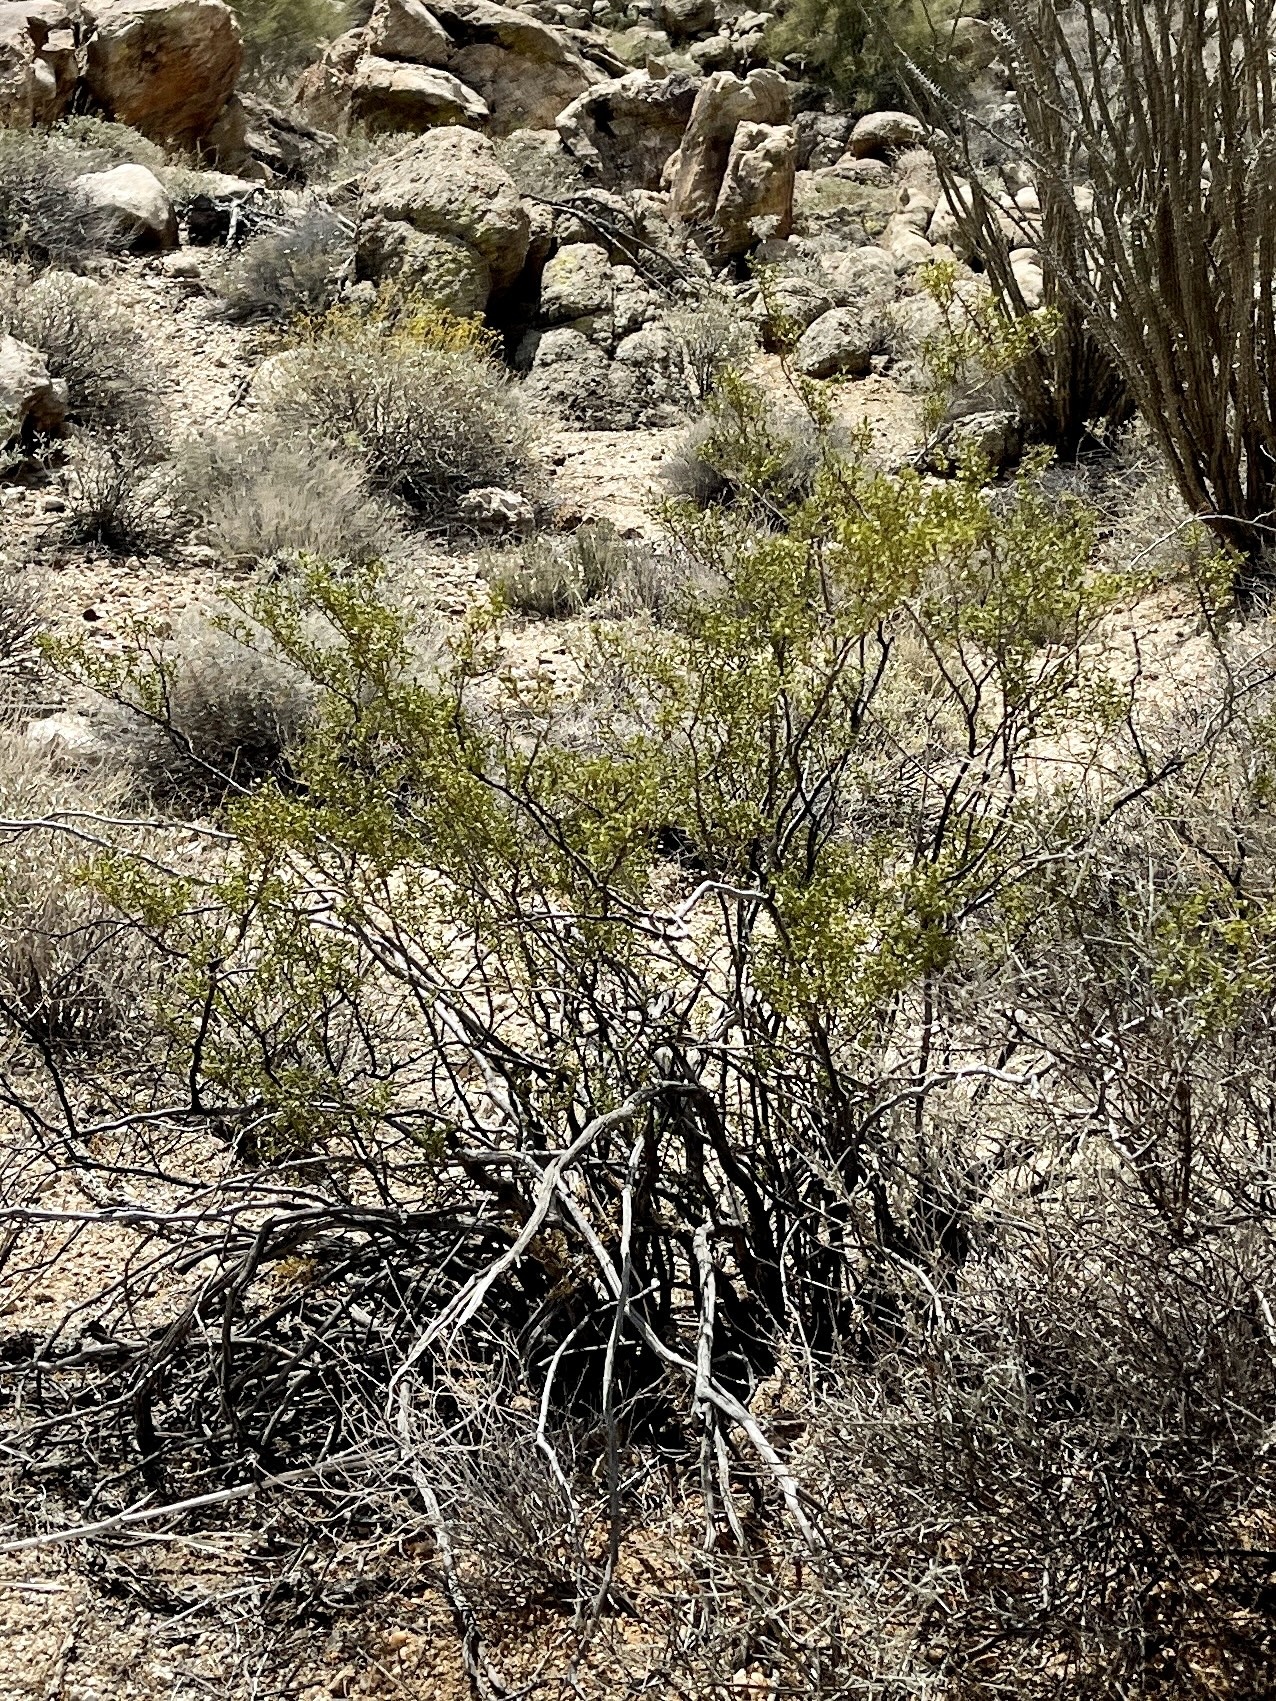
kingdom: Plantae
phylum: Tracheophyta
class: Magnoliopsida
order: Zygophyllales
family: Zygophyllaceae
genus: Larrea
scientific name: Larrea tridentata
